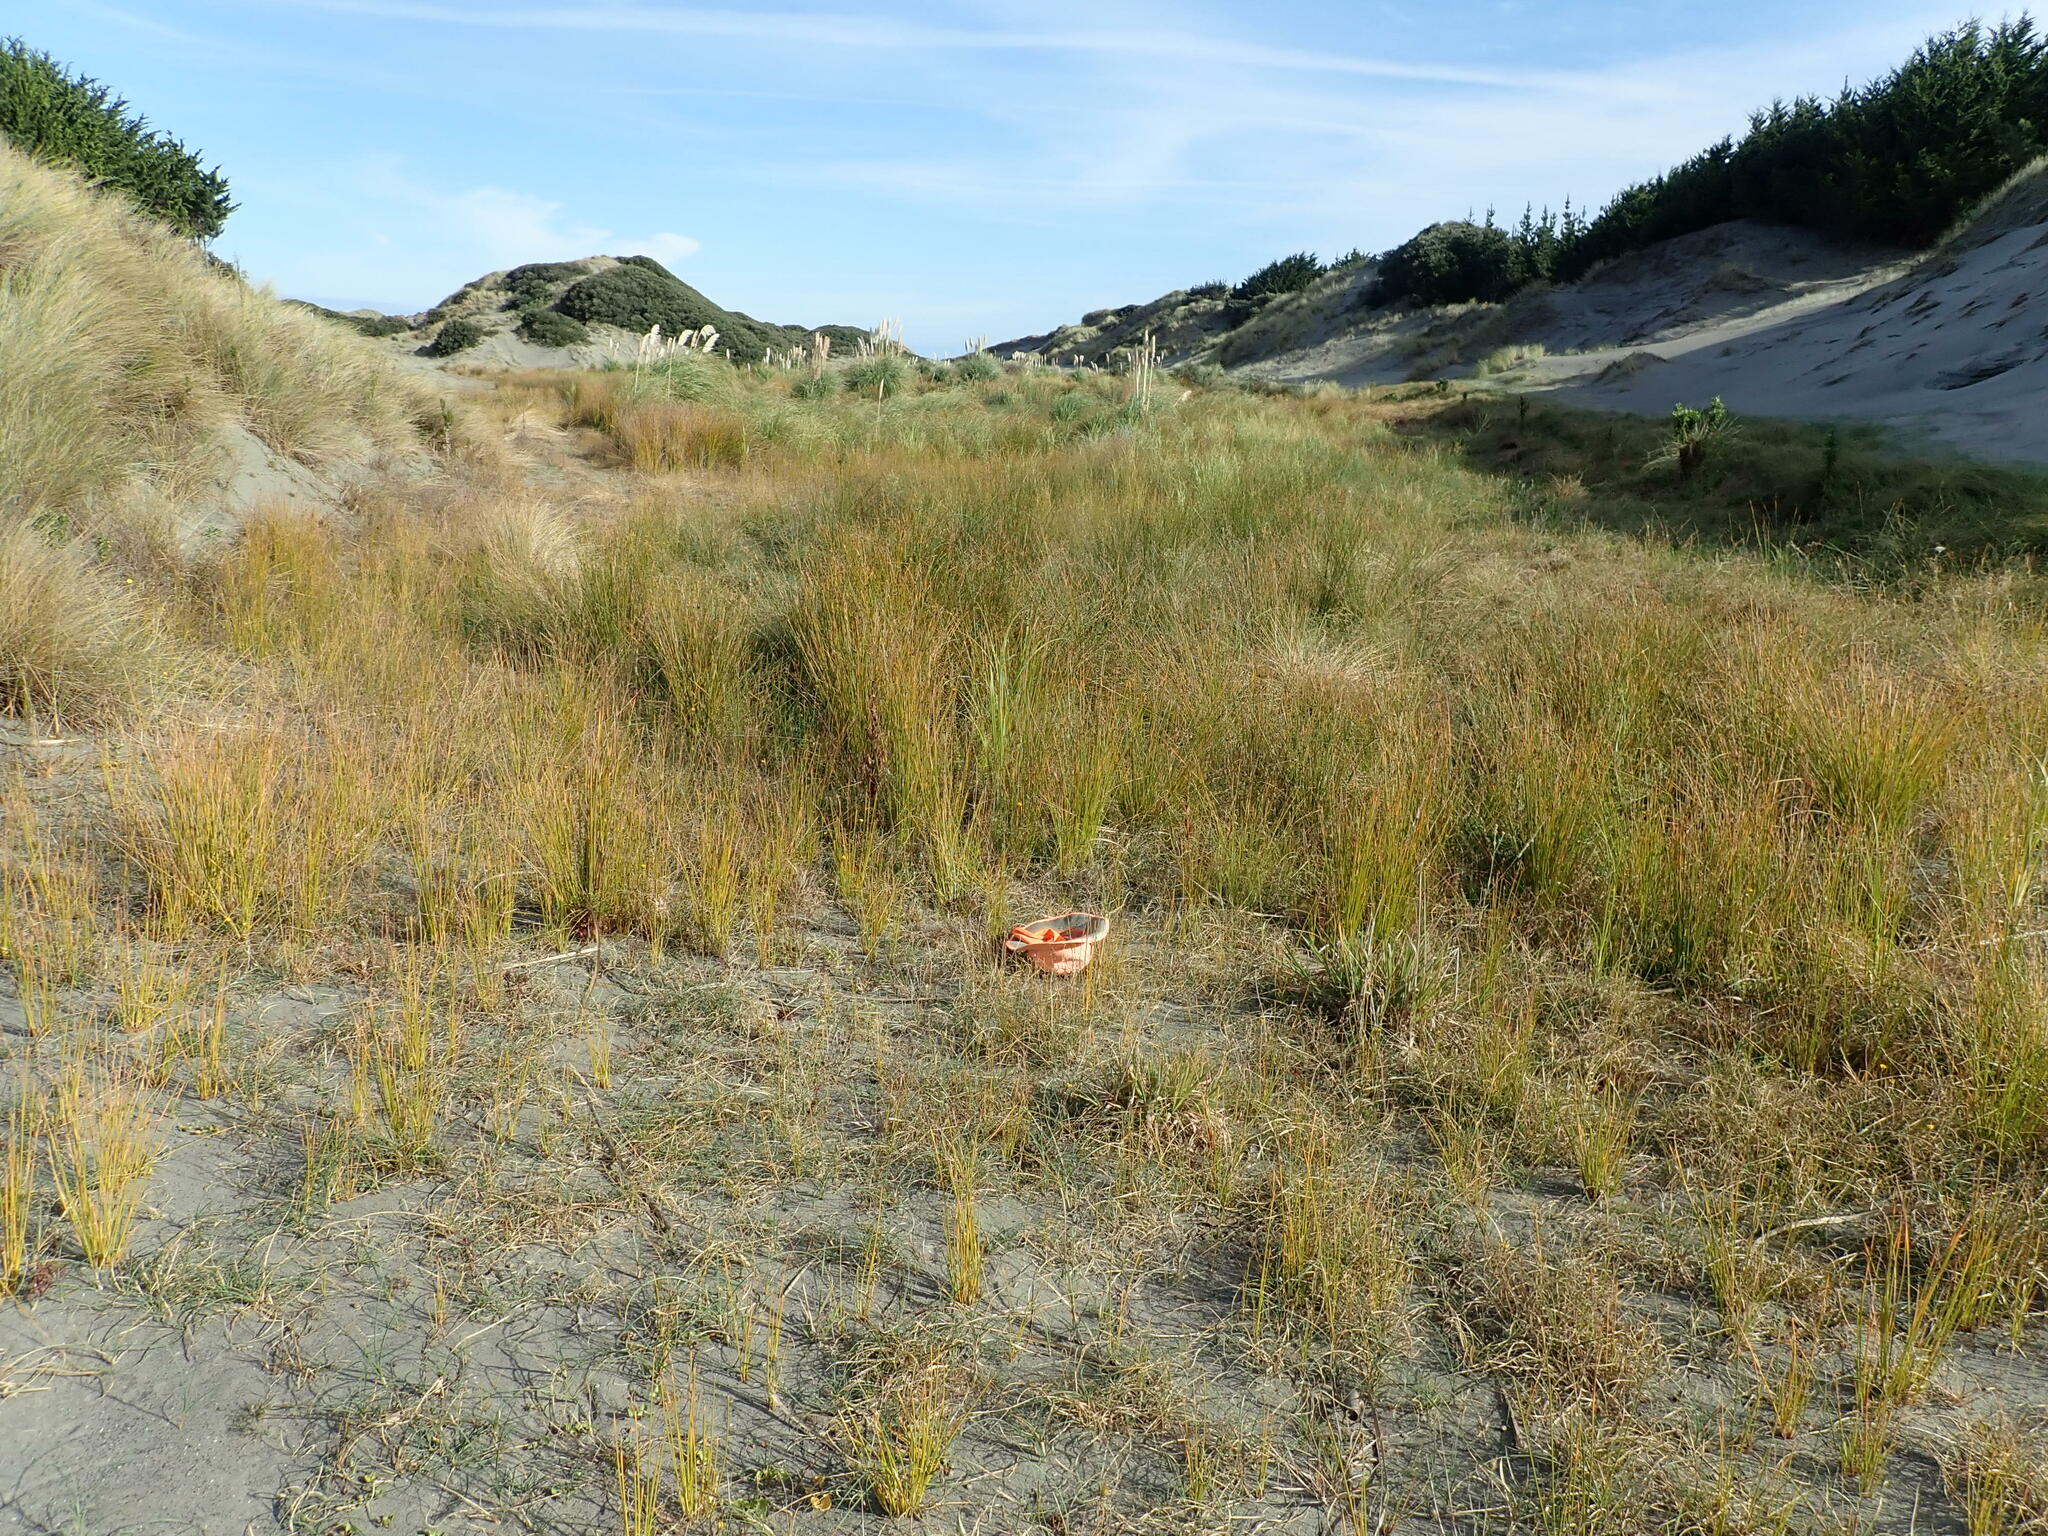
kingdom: Plantae
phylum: Tracheophyta
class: Liliopsida
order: Poales
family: Juncaceae
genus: Juncus
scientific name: Juncus bufonius
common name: Toad rush
